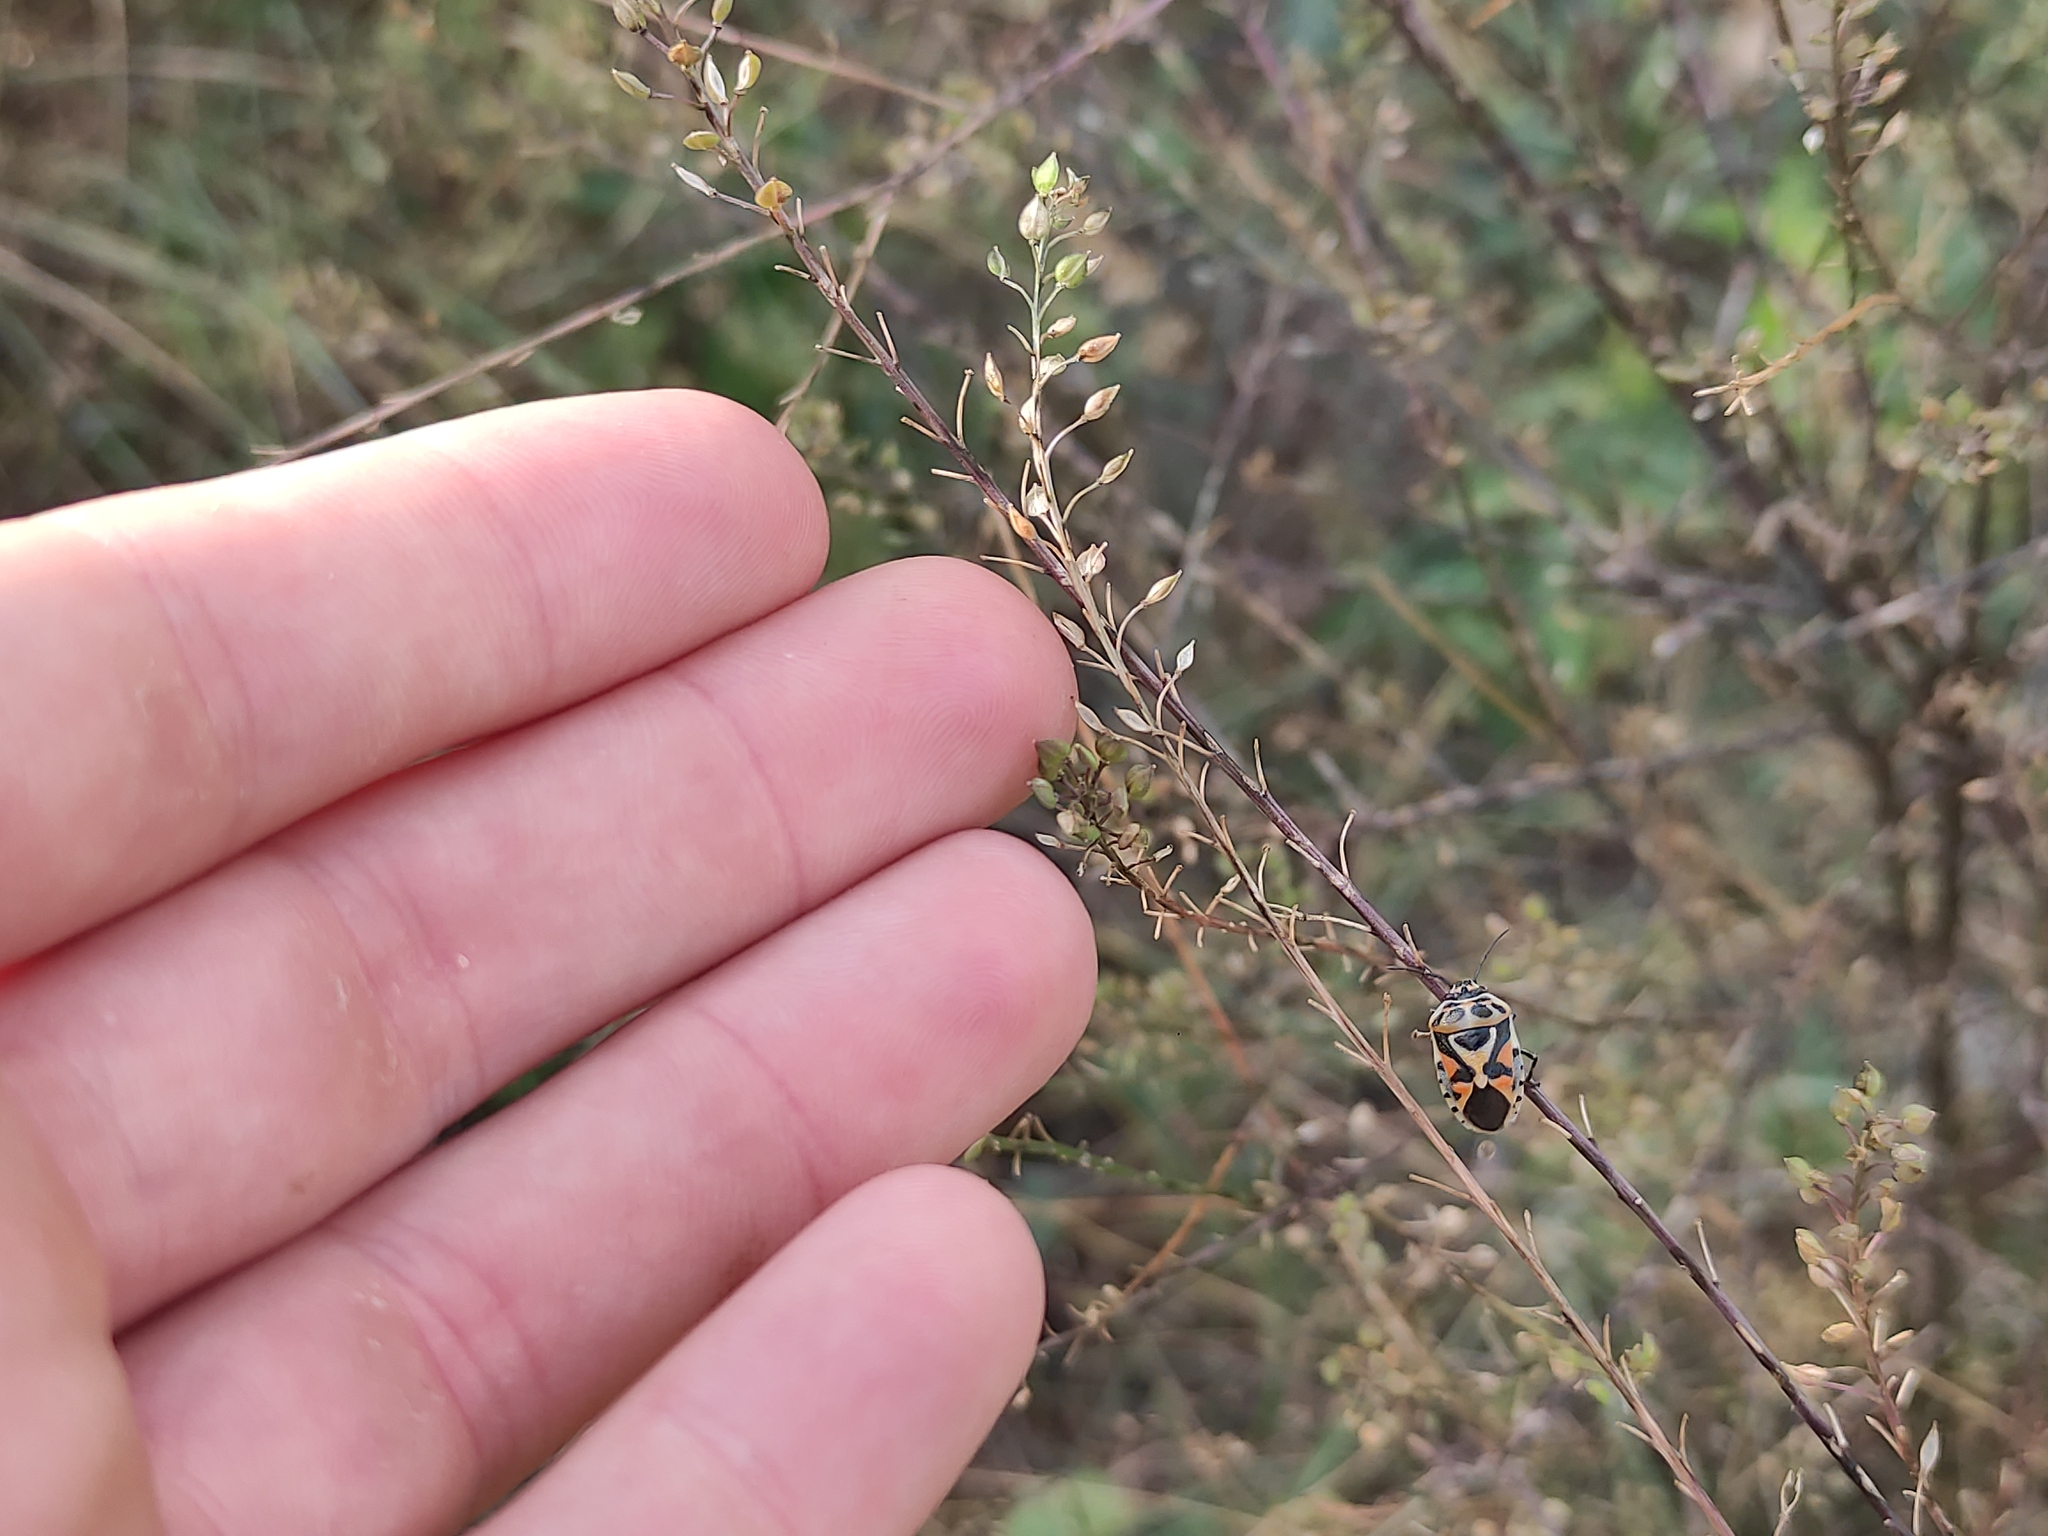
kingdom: Plantae
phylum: Tracheophyta
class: Magnoliopsida
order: Brassicales
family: Brassicaceae
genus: Lepidium
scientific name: Lepidium graminifolium
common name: Tall pepperwort
